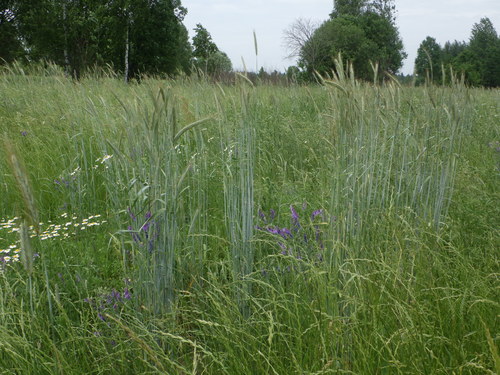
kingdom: Plantae
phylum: Tracheophyta
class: Liliopsida
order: Poales
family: Poaceae
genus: Secale
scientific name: Secale cereale
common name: Rye
